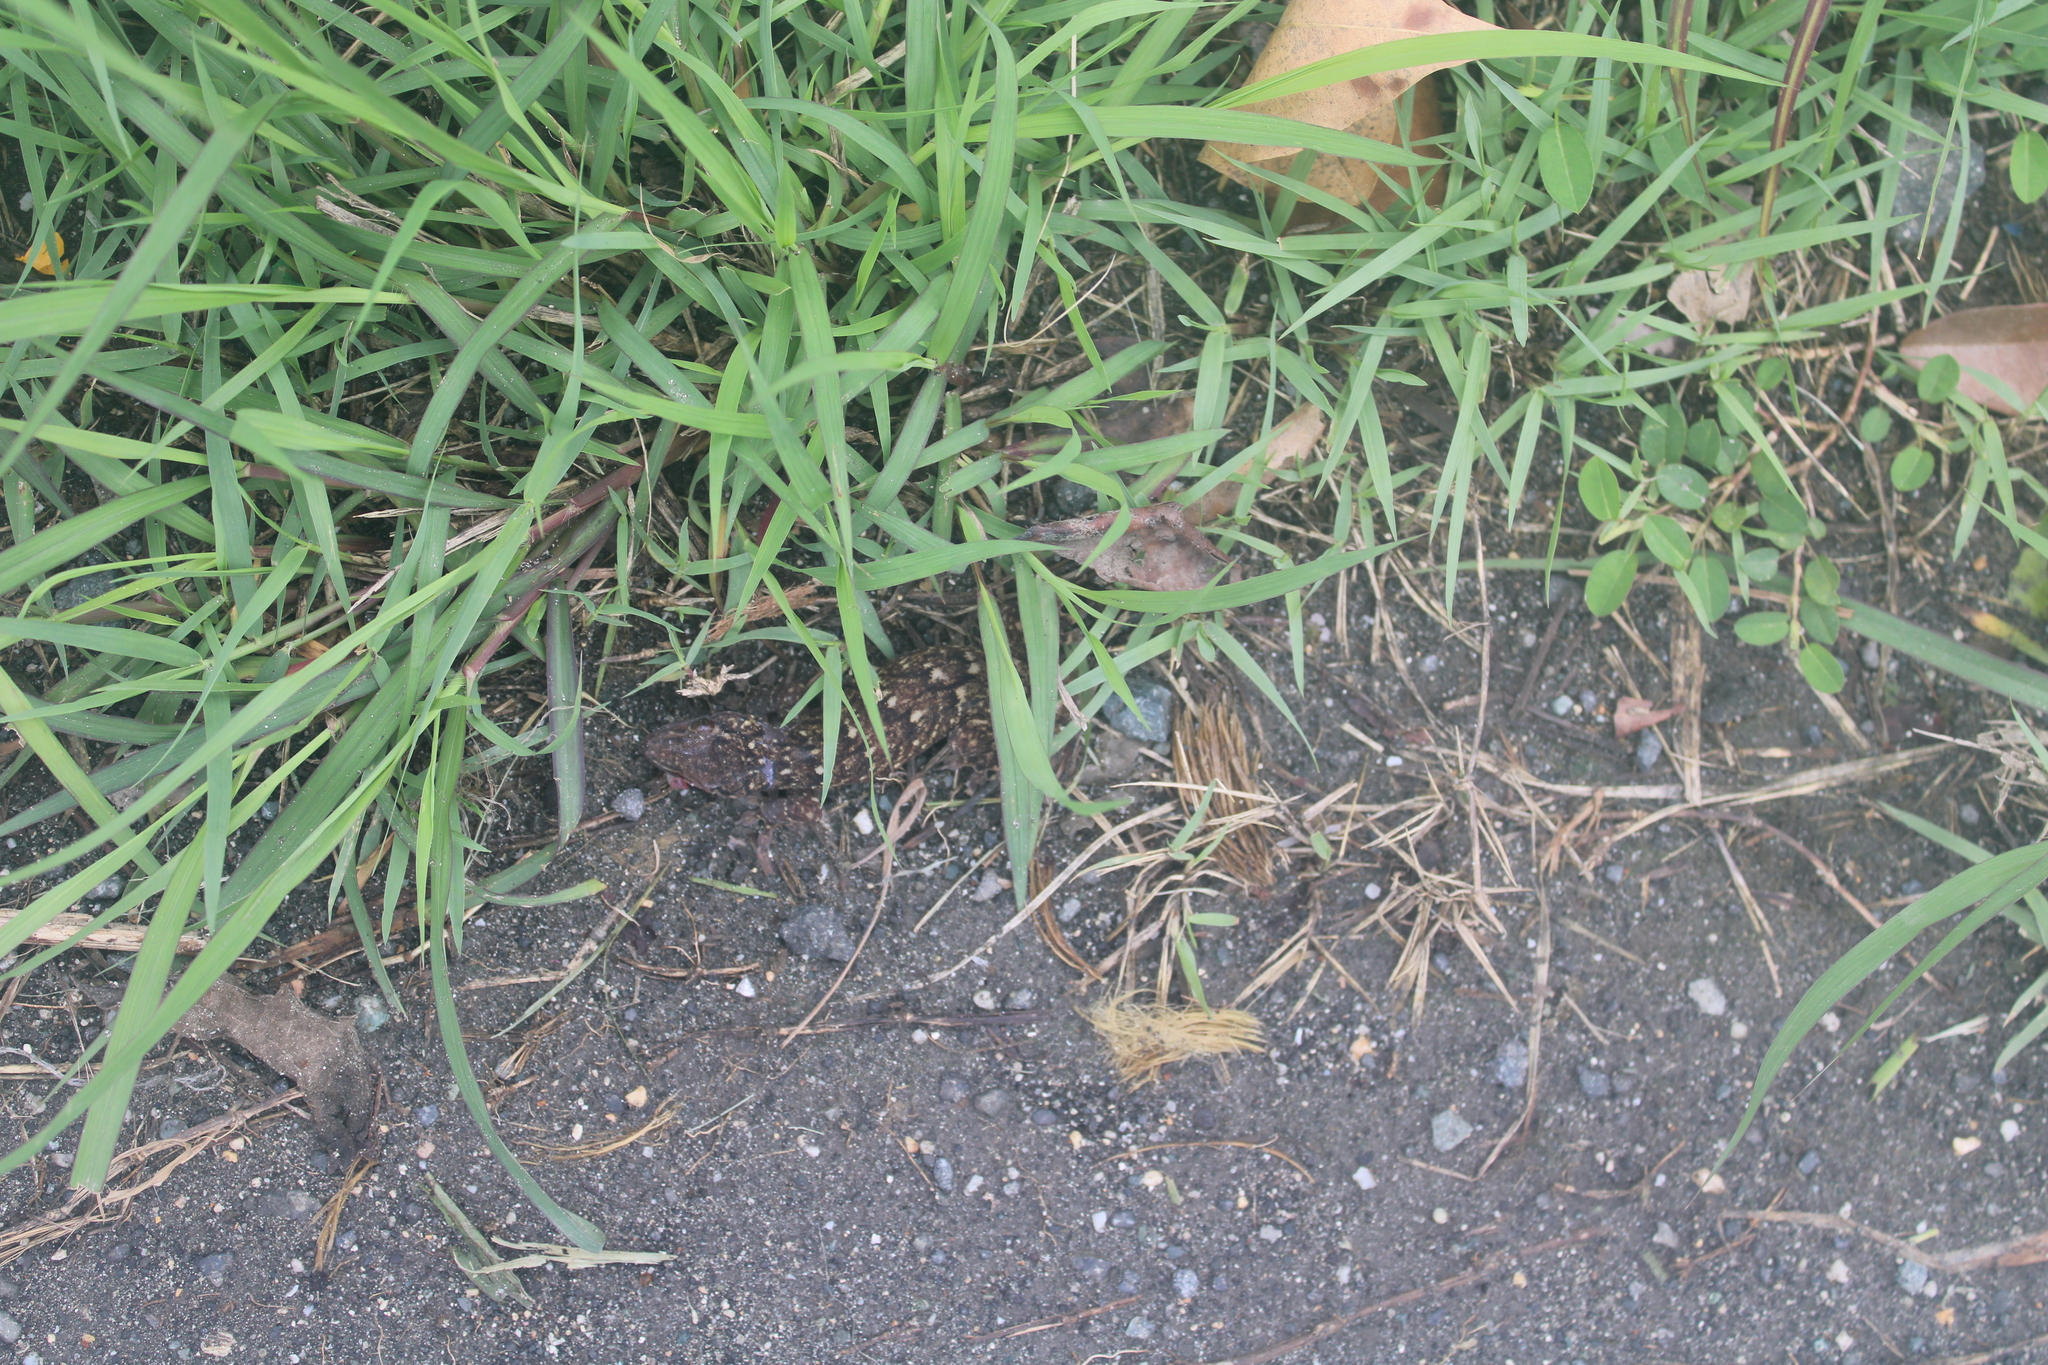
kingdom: Animalia
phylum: Chordata
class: Squamata
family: Gekkonidae
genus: Gehyra
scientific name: Gehyra brevipalmata
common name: Palau island dtella
